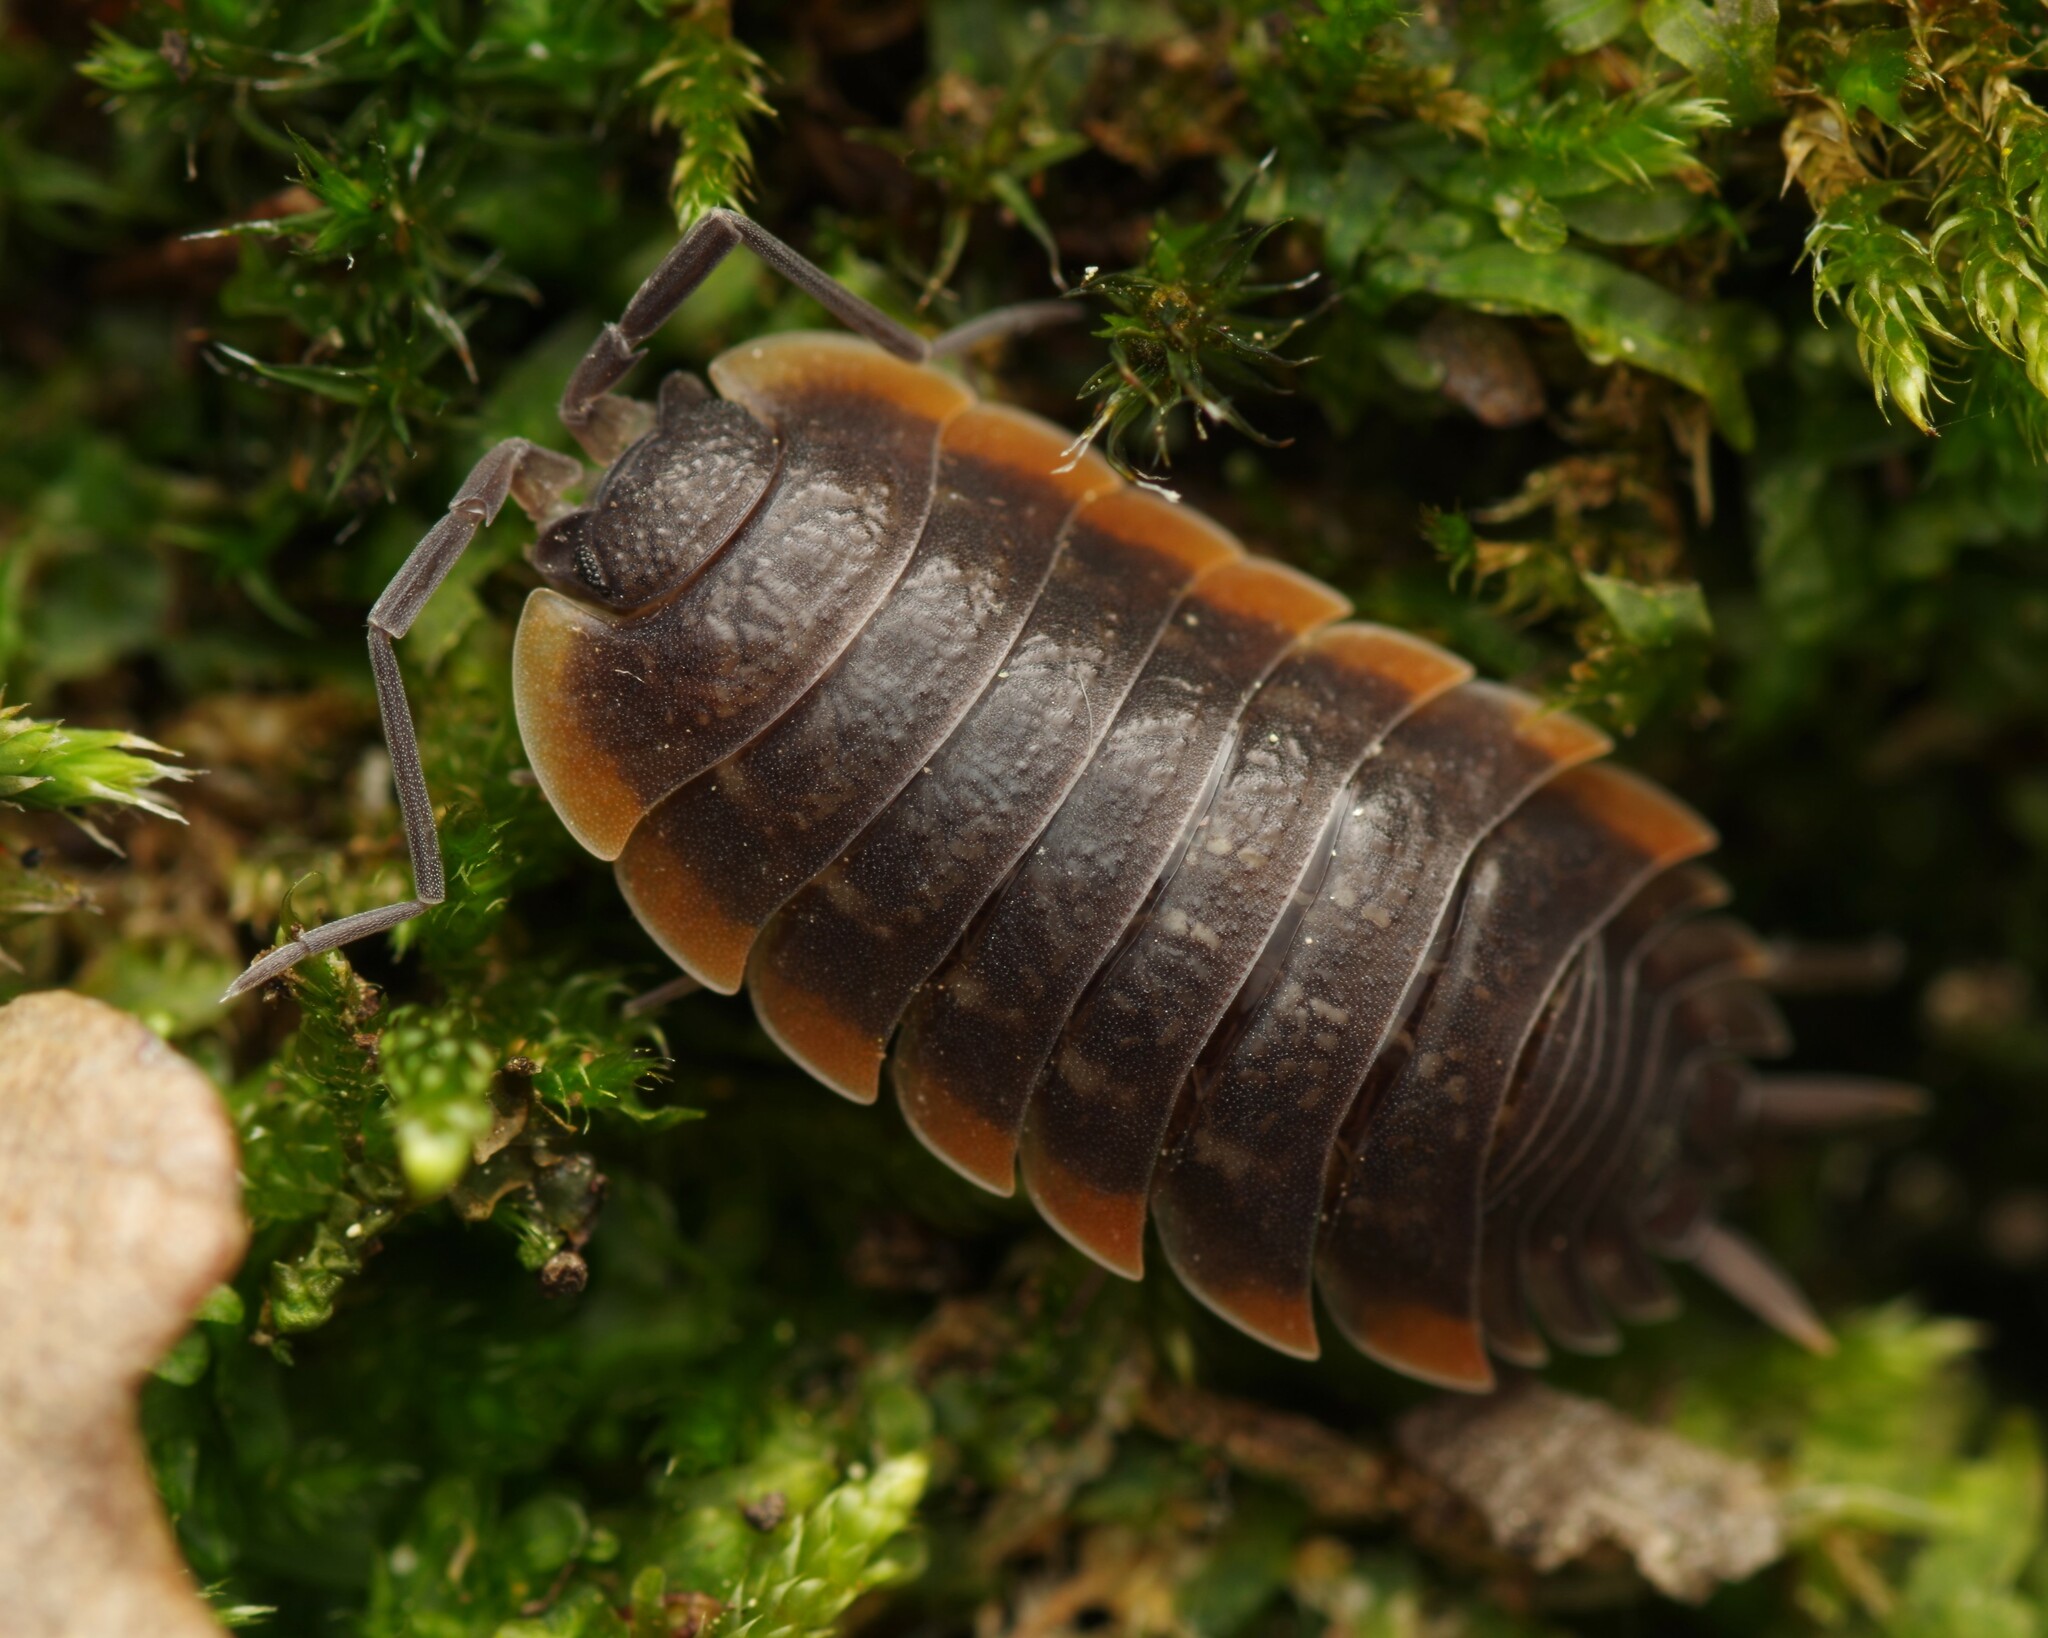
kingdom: Animalia
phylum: Arthropoda
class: Malacostraca
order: Isopoda
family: Porcellionidae
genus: Porcellio
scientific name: Porcellio duboscqui
